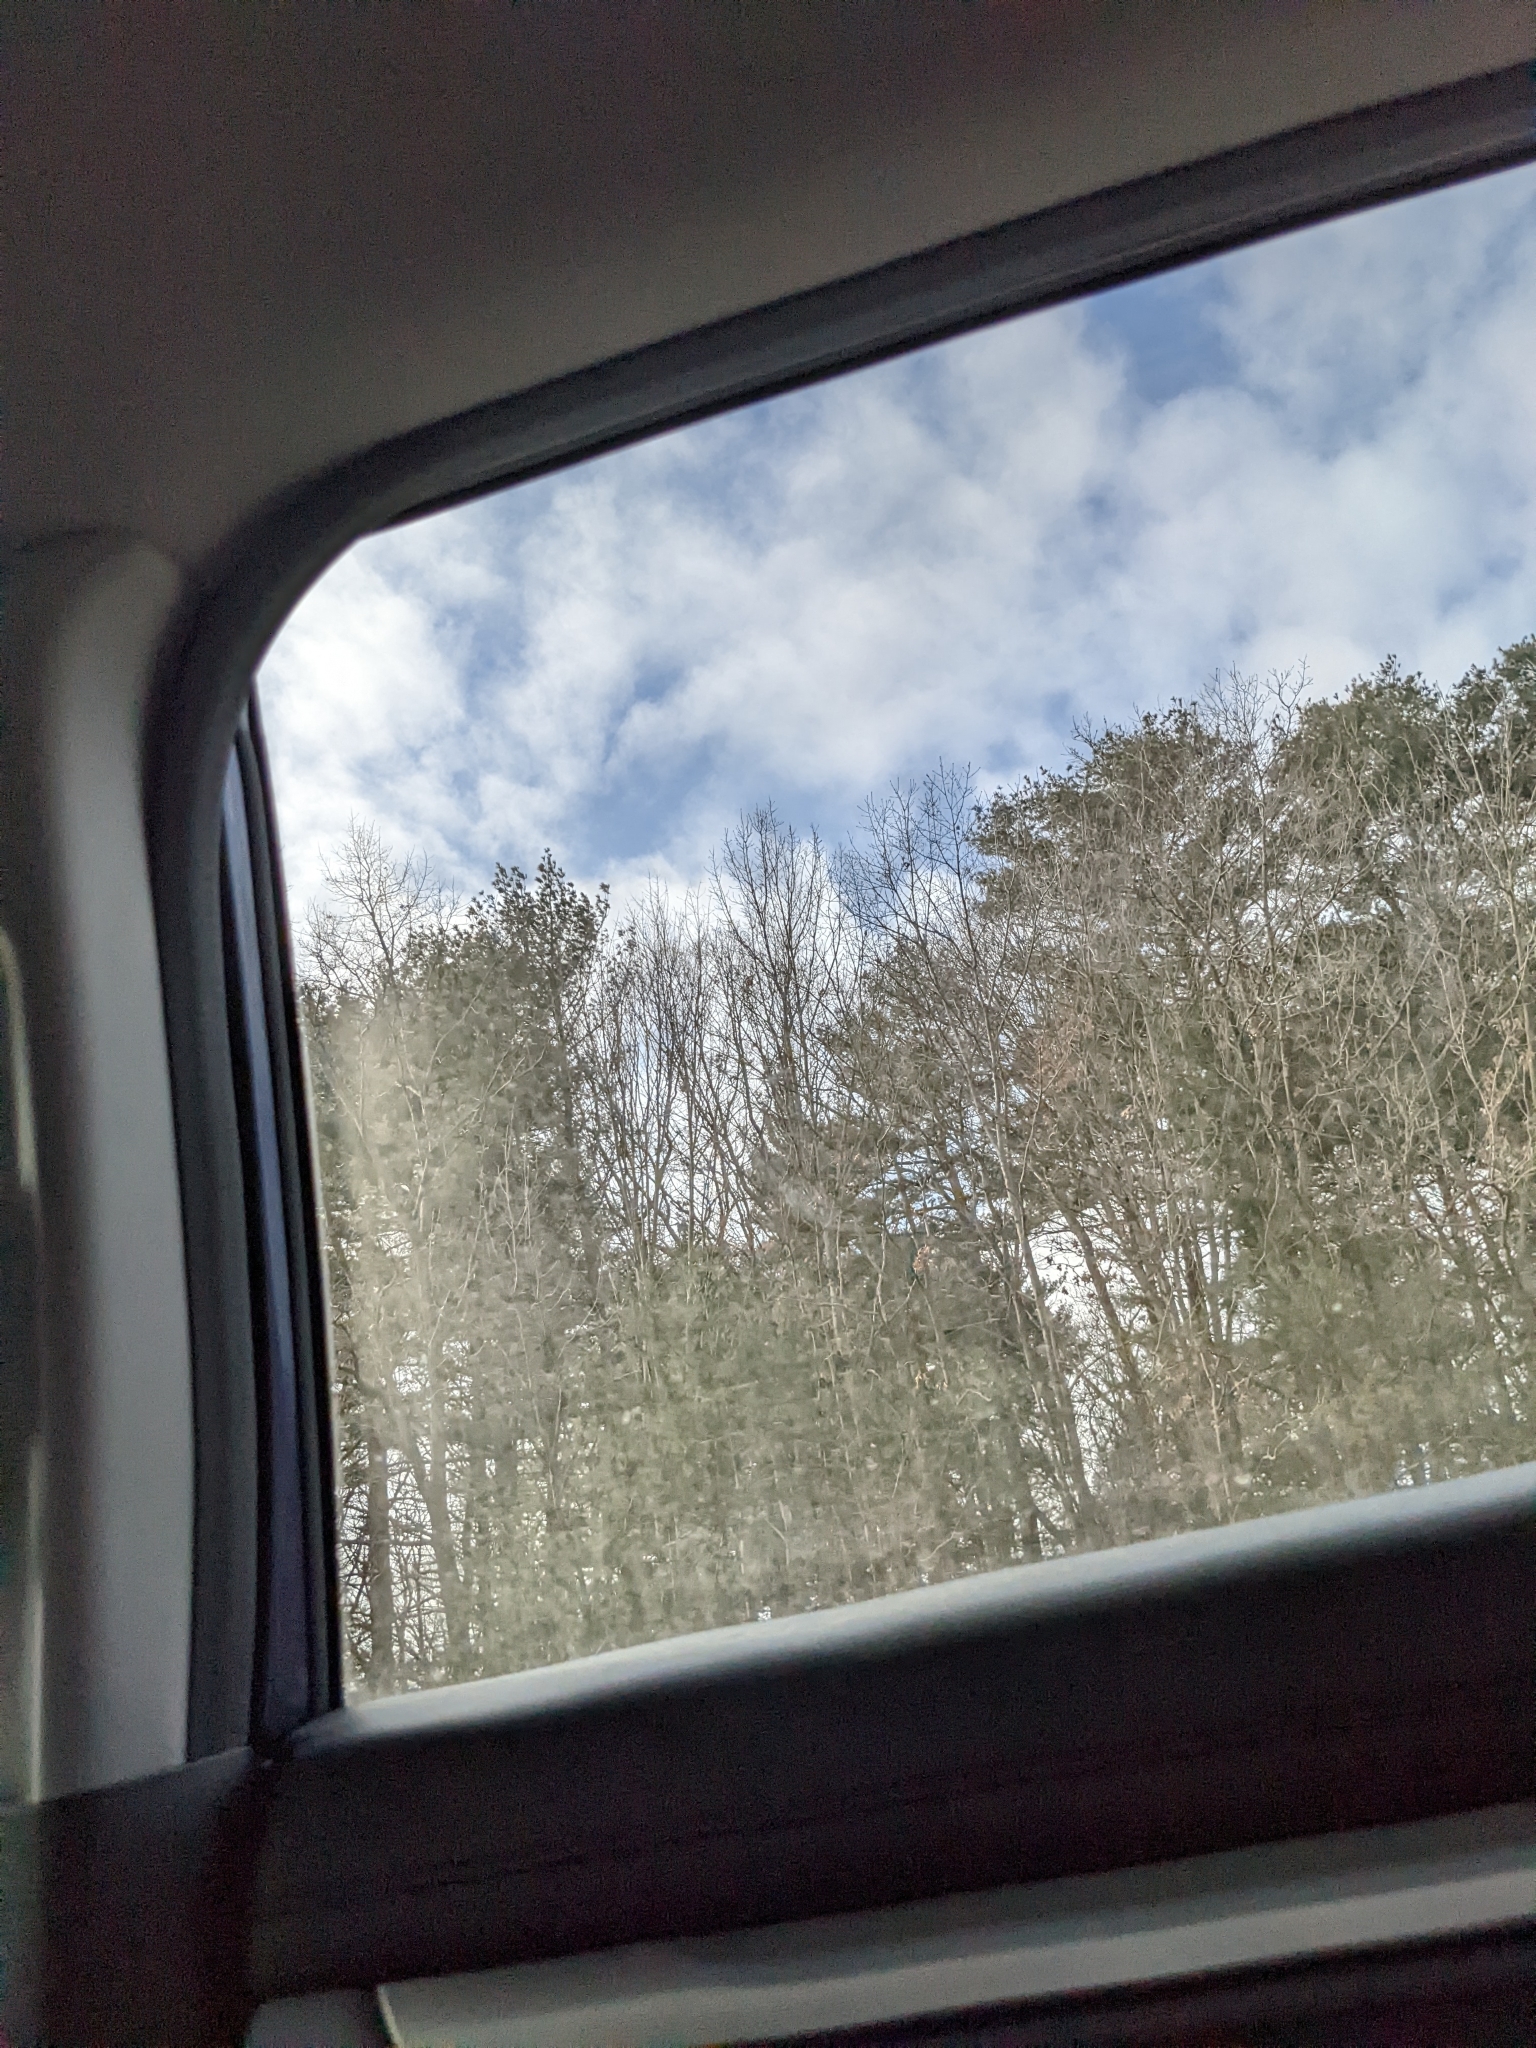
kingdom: Plantae
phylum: Tracheophyta
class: Pinopsida
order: Pinales
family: Pinaceae
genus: Pinus
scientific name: Pinus strobus
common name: Weymouth pine
